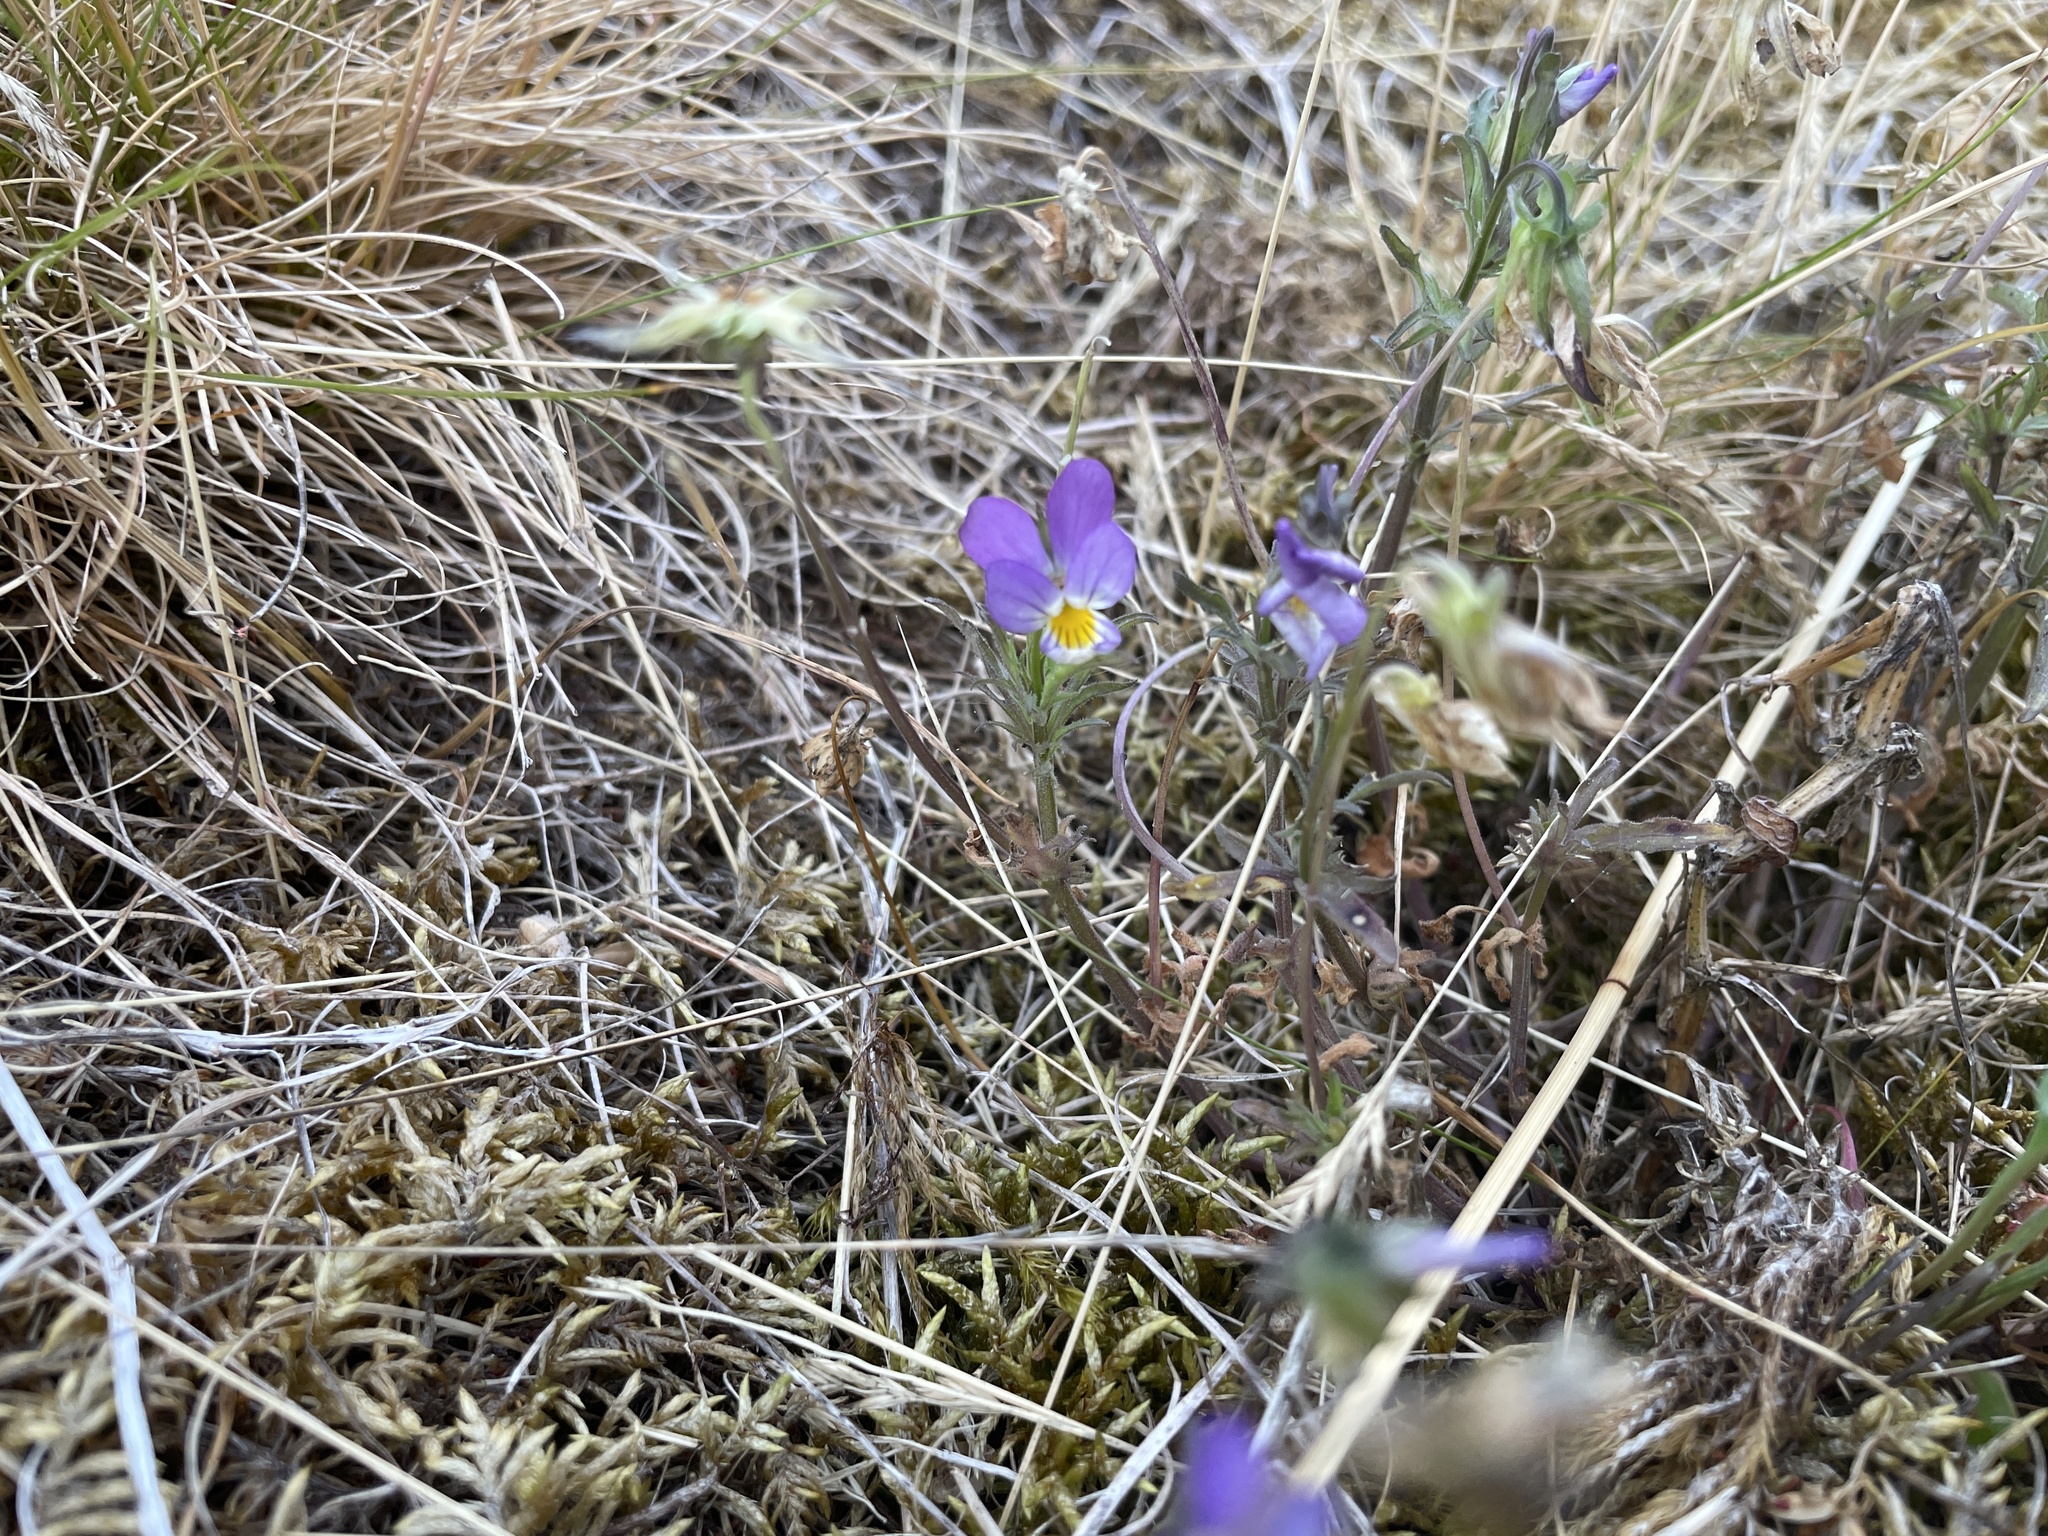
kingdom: Plantae
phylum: Tracheophyta
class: Magnoliopsida
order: Malpighiales
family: Violaceae
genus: Viola
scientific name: Viola tricolor
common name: Pansy
